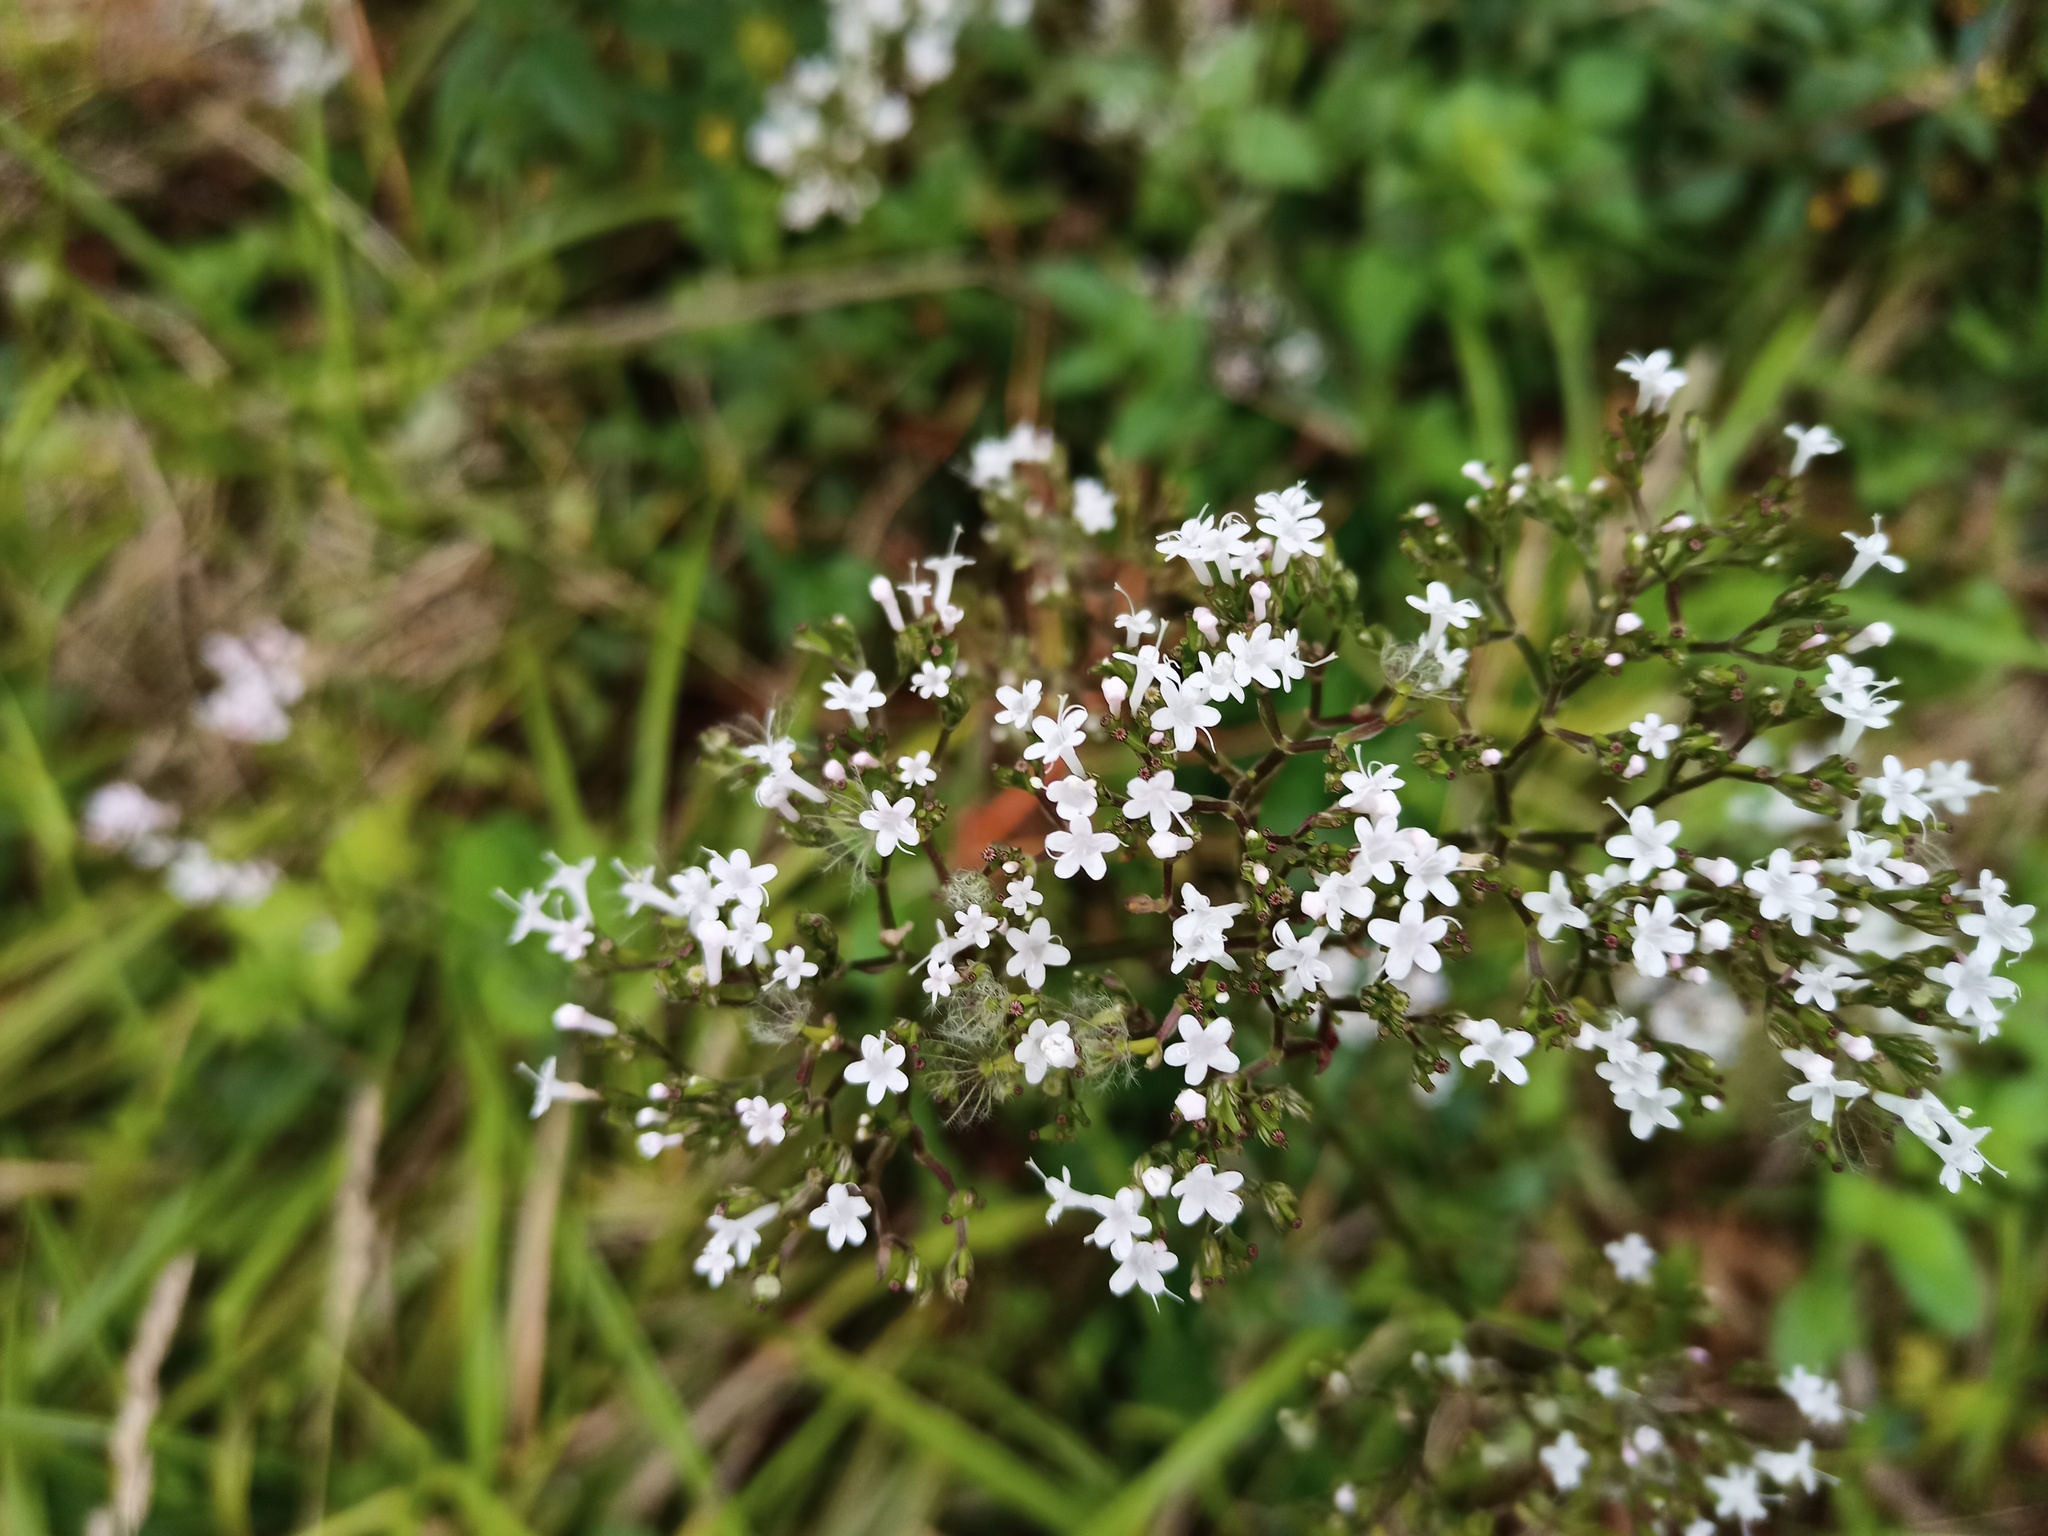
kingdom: Plantae
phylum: Tracheophyta
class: Magnoliopsida
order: Dipsacales
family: Caprifoliaceae
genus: Valeriana
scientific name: Valeriana officinalis
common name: Common valerian
